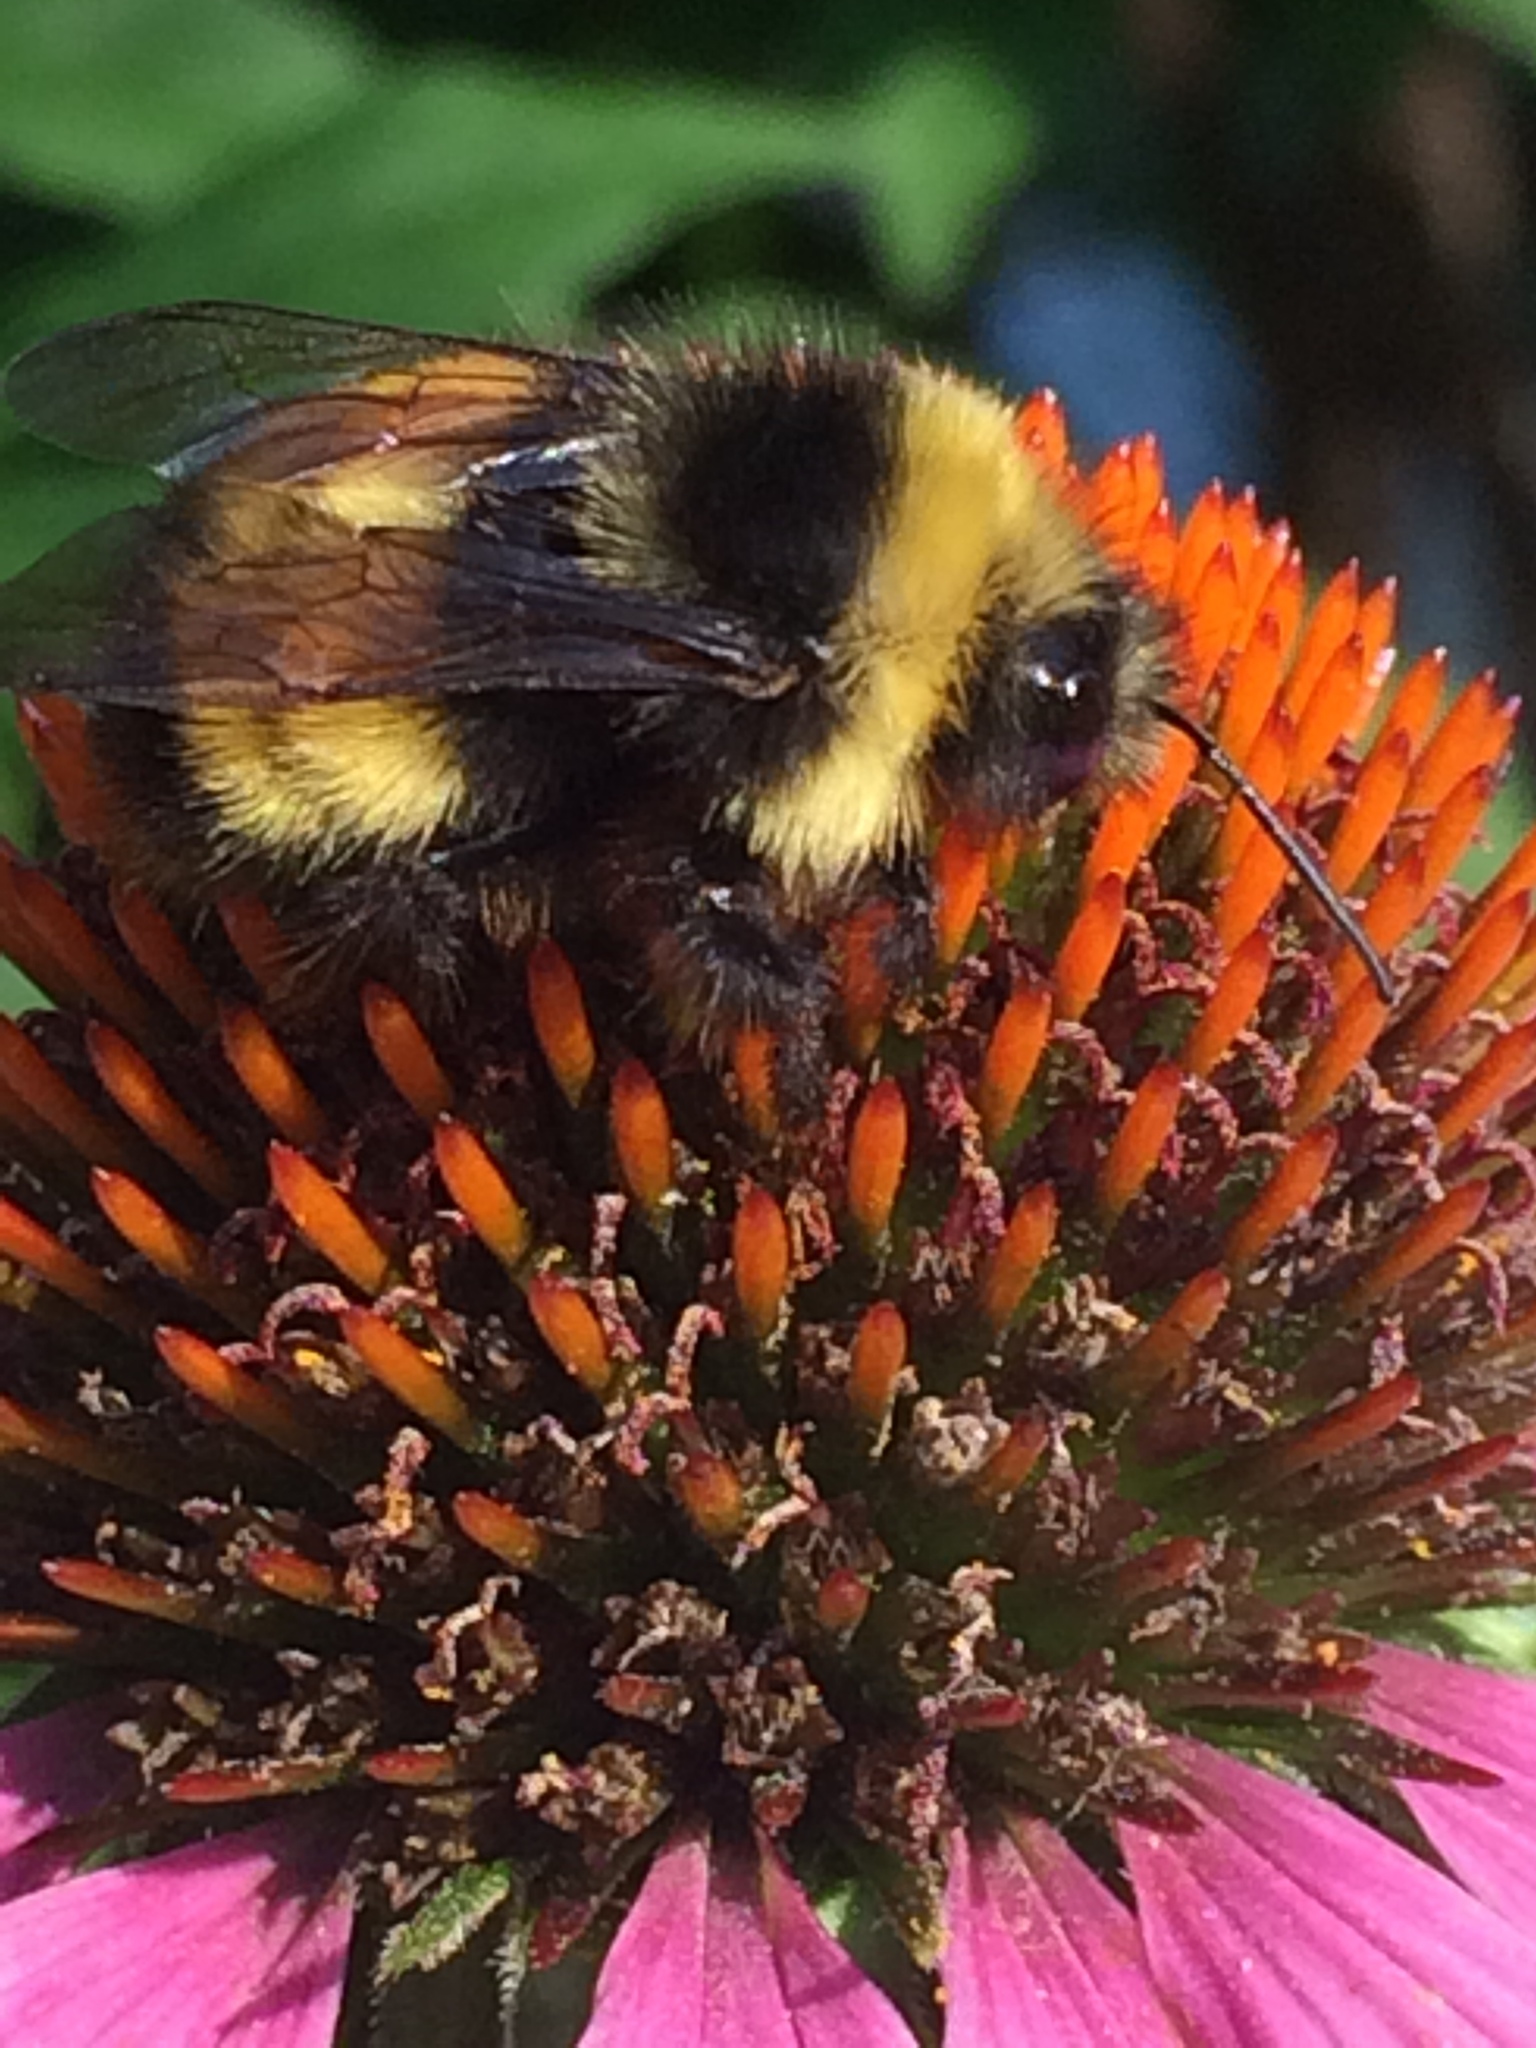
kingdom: Animalia
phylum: Arthropoda
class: Insecta
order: Hymenoptera
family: Apidae
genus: Bombus
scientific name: Bombus terricola
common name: Yellow-banded bumble bee
